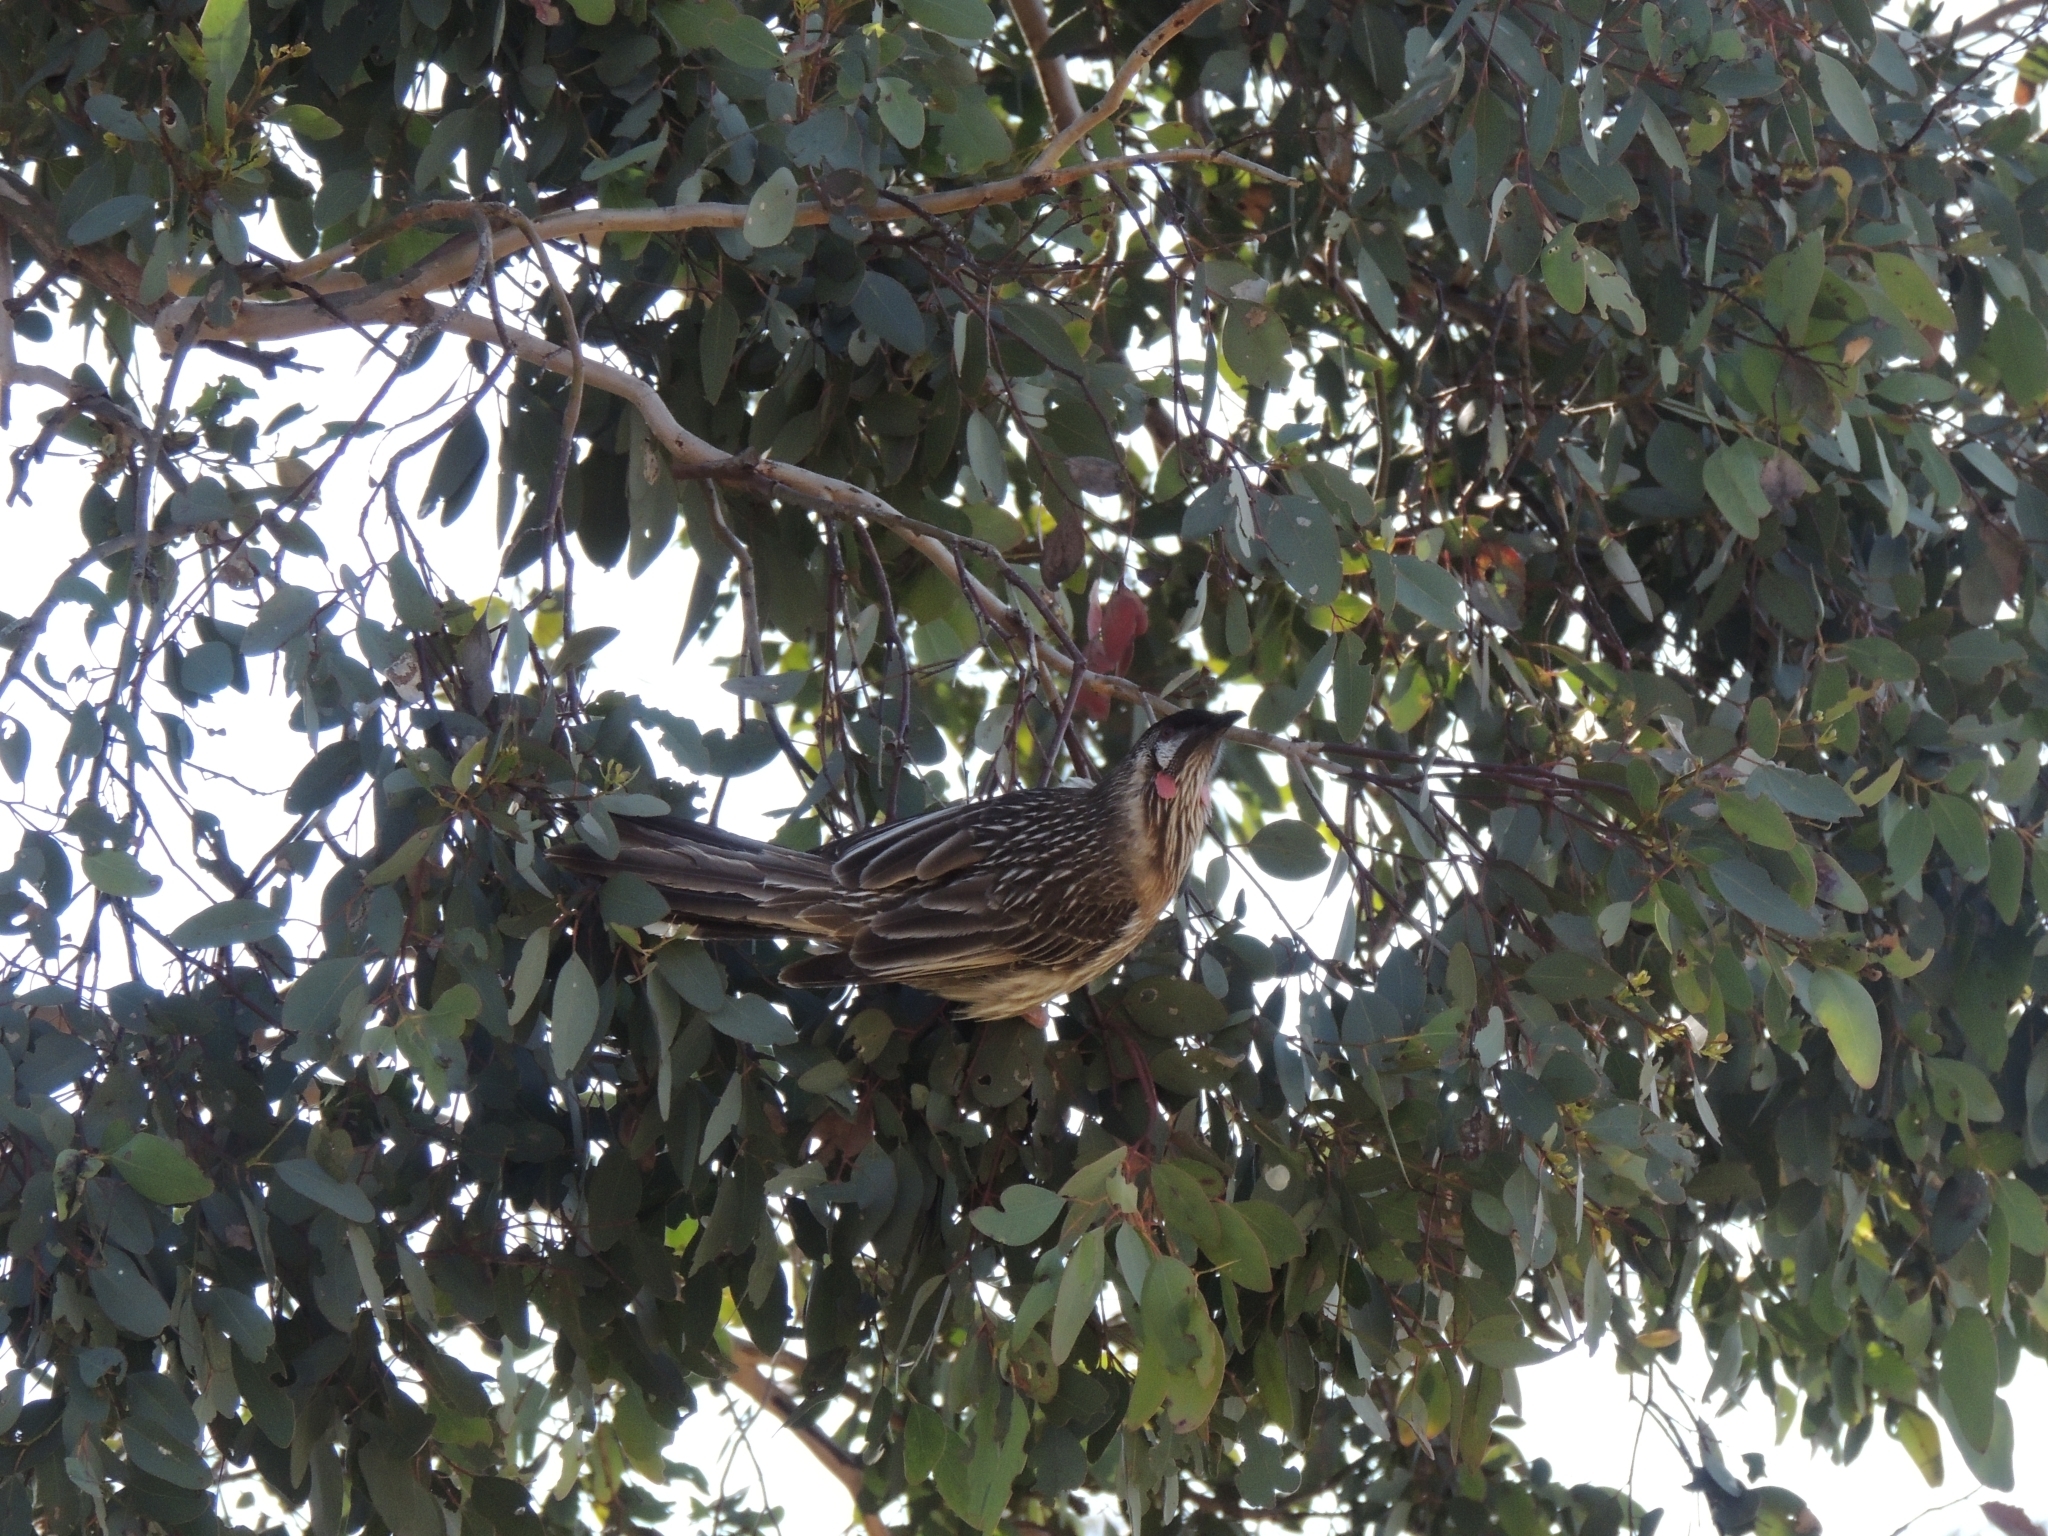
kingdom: Animalia
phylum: Chordata
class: Aves
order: Passeriformes
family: Meliphagidae
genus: Anthochaera
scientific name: Anthochaera carunculata
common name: Red wattlebird
